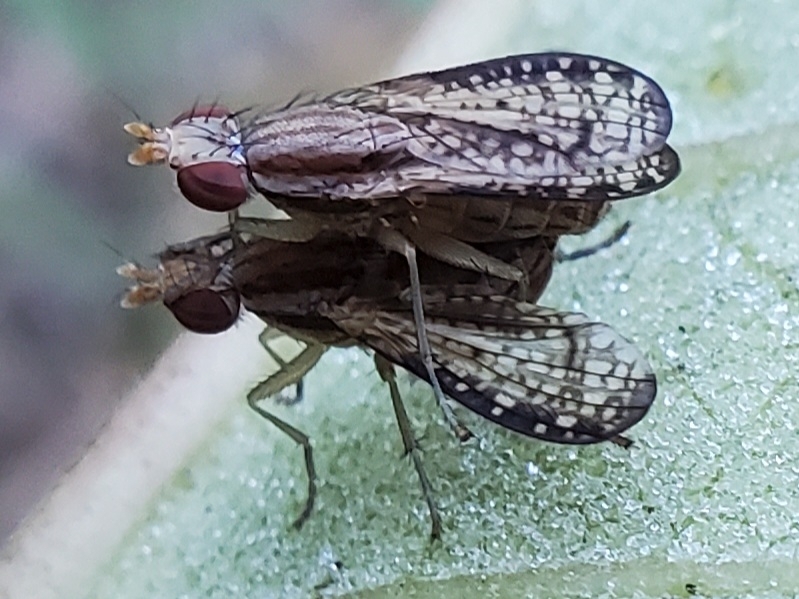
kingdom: Animalia
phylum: Arthropoda
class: Insecta
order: Diptera
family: Sciomyzidae
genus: Trypetoptera
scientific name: Trypetoptera canadensis
